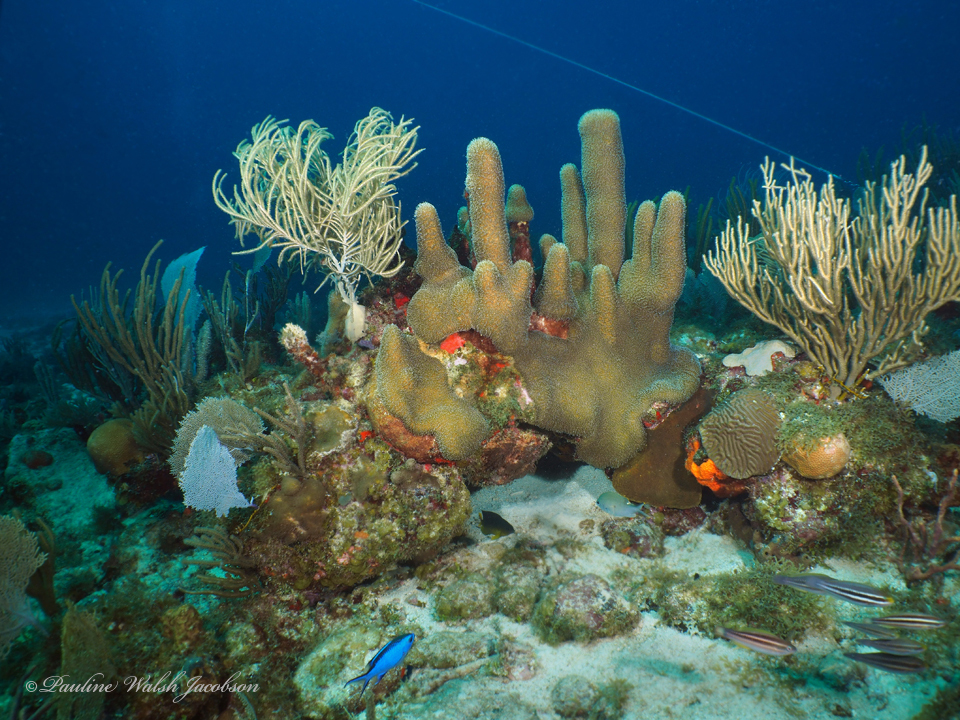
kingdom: Animalia
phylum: Cnidaria
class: Anthozoa
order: Scleractinia
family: Meandrinidae
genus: Dendrogyra
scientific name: Dendrogyra cylindrus
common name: Pillar coral
